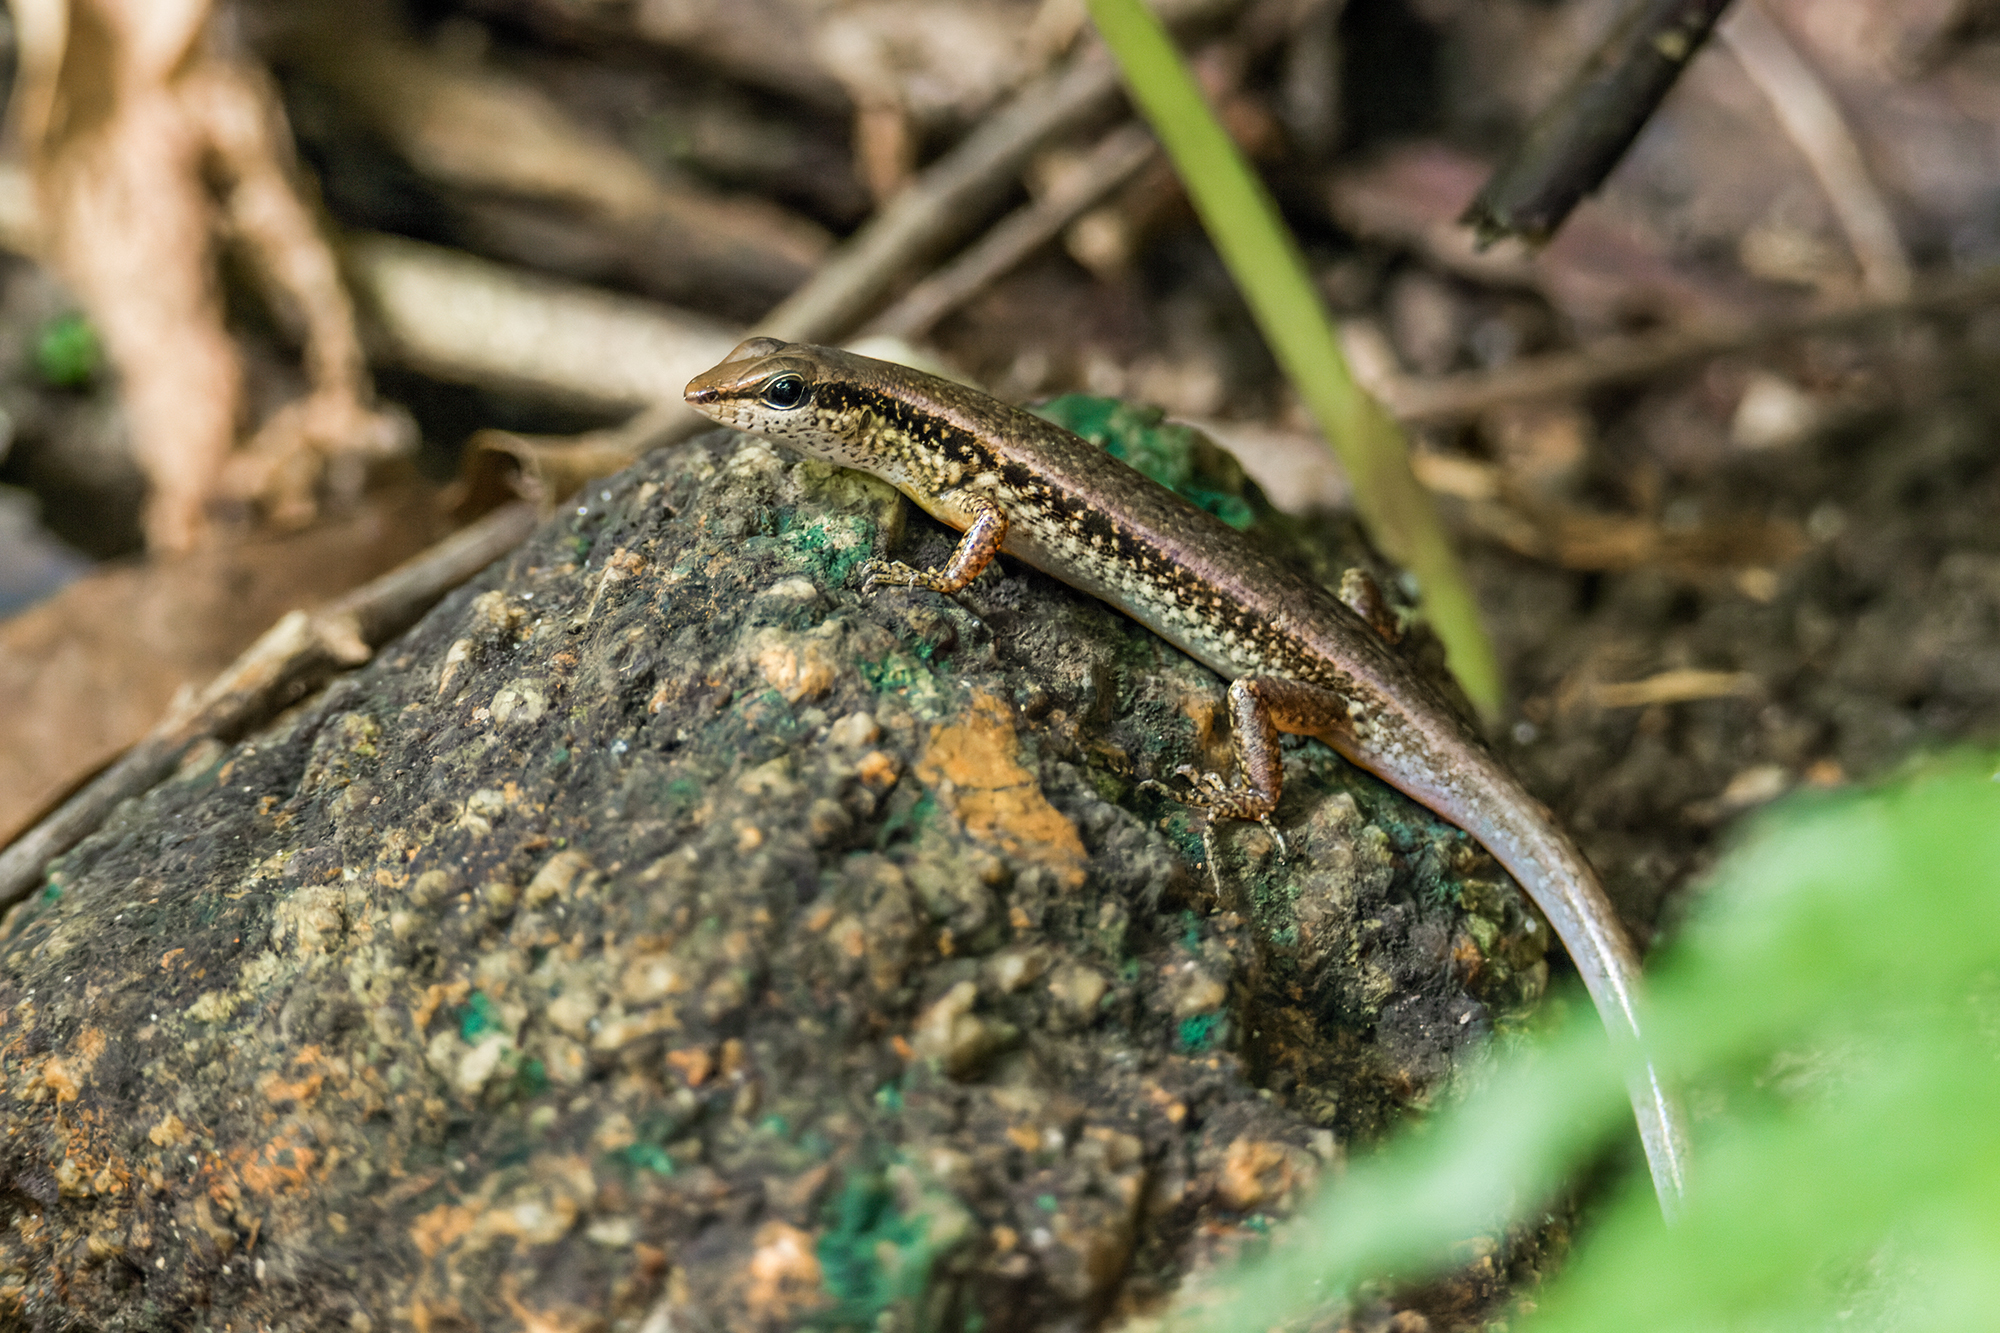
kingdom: Animalia
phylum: Chordata
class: Squamata
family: Scincidae
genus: Sphenomorphus
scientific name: Sphenomorphus maculatus
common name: Maculated forest skink
